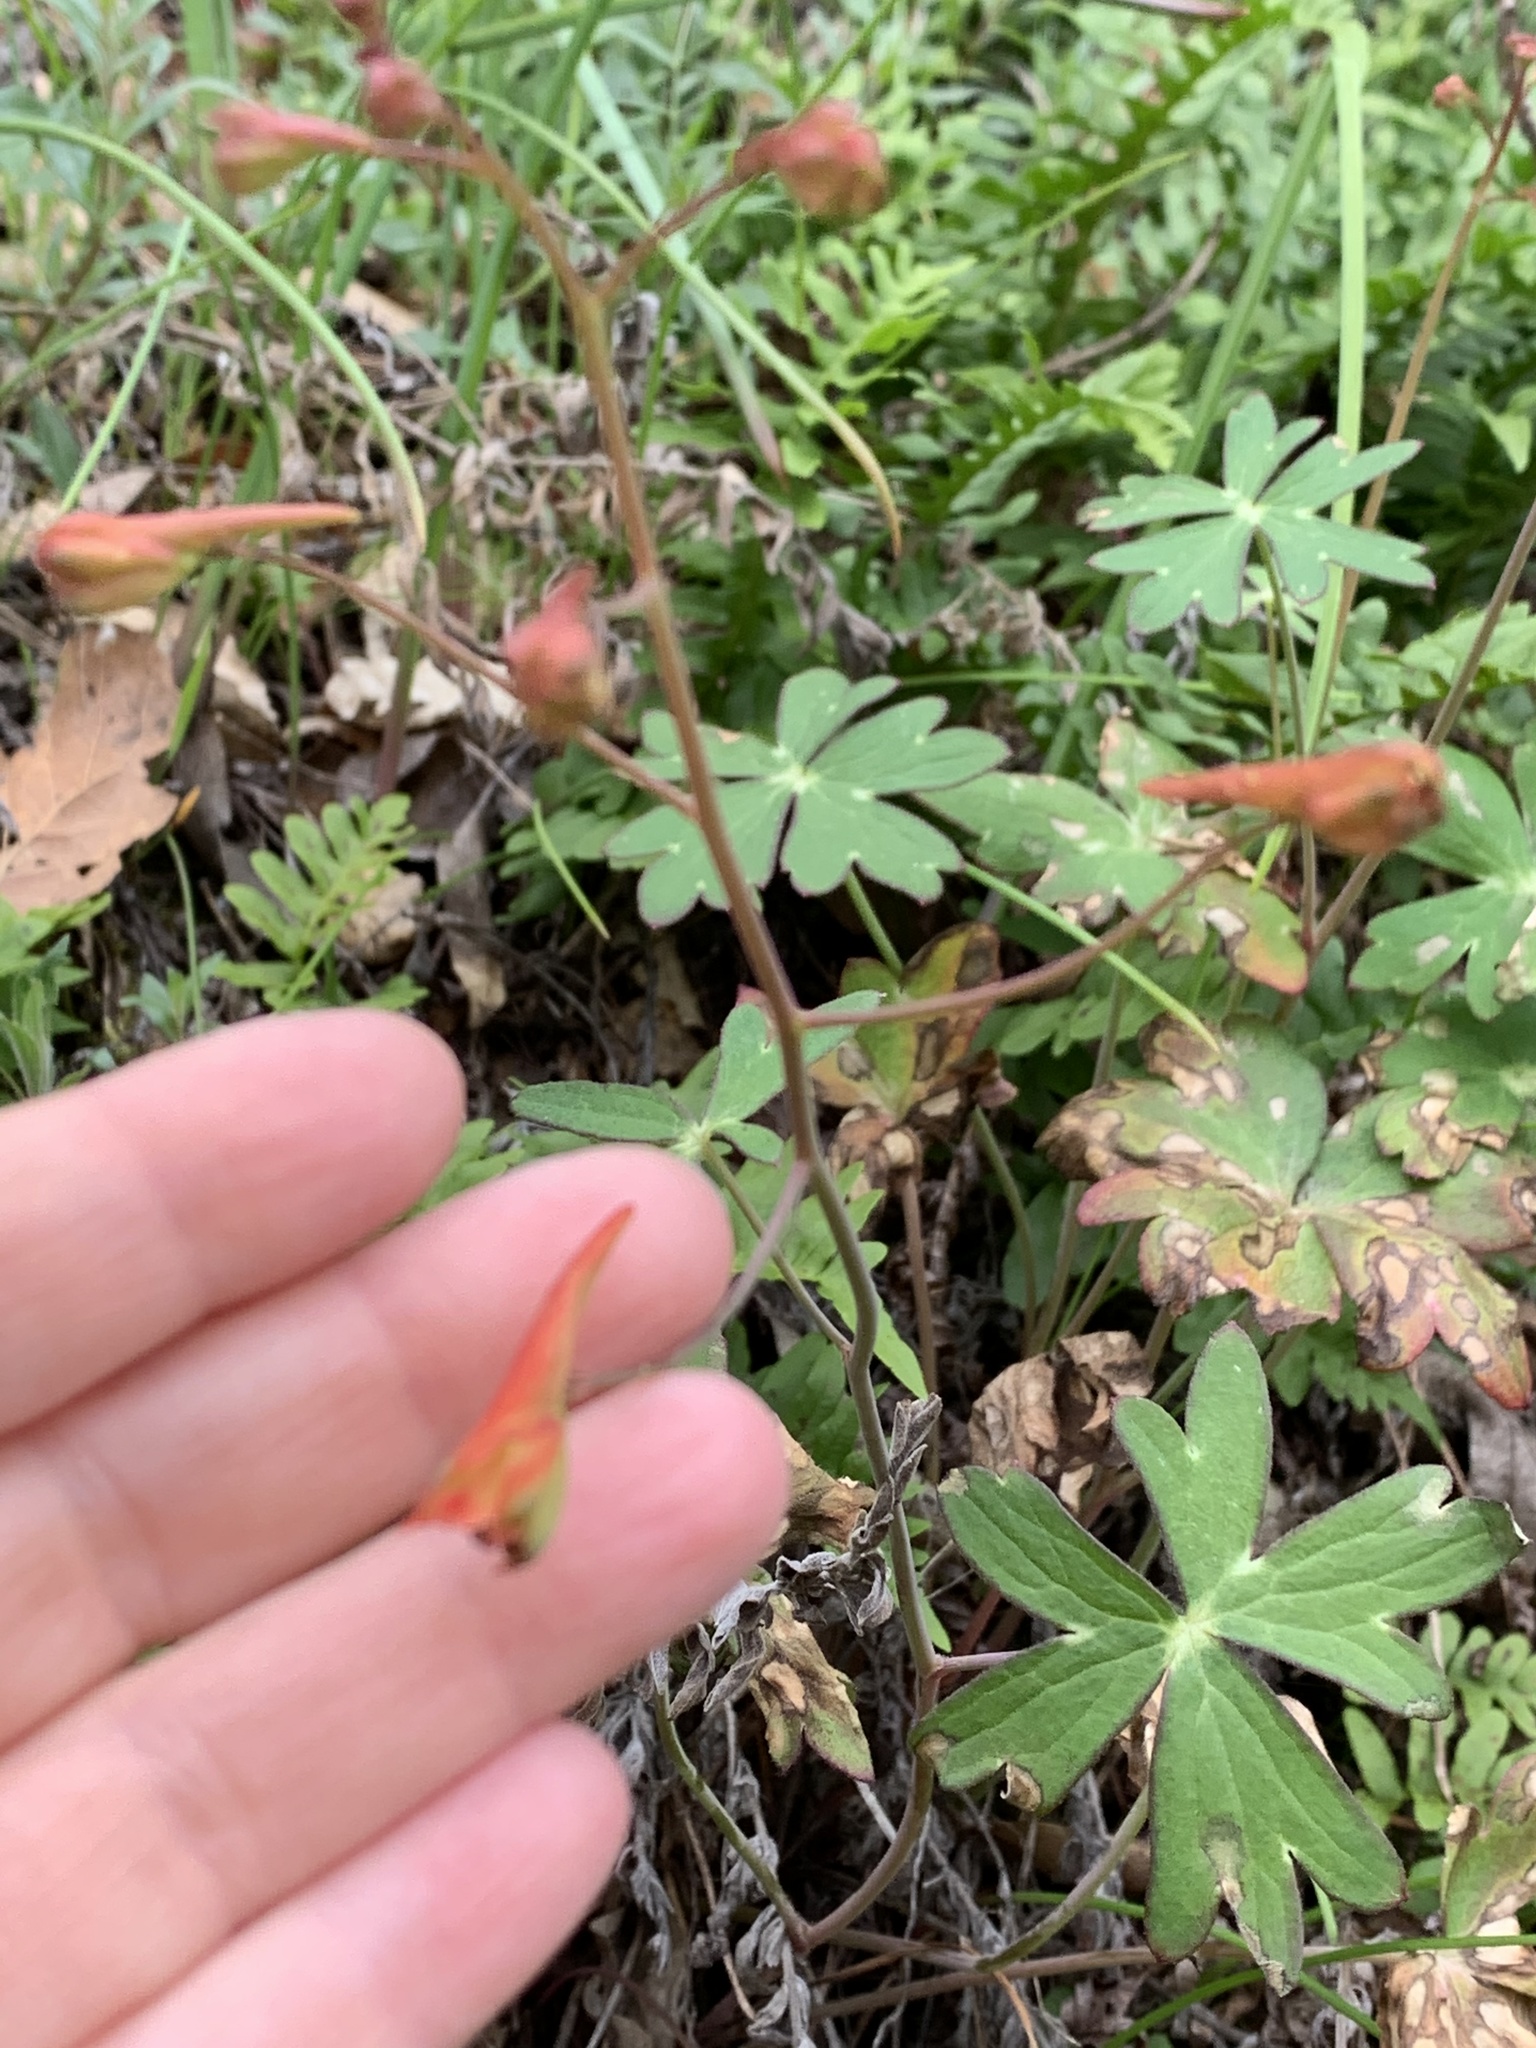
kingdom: Plantae
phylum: Tracheophyta
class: Magnoliopsida
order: Ranunculales
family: Ranunculaceae
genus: Delphinium
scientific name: Delphinium nudicaule
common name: Red larkspur
